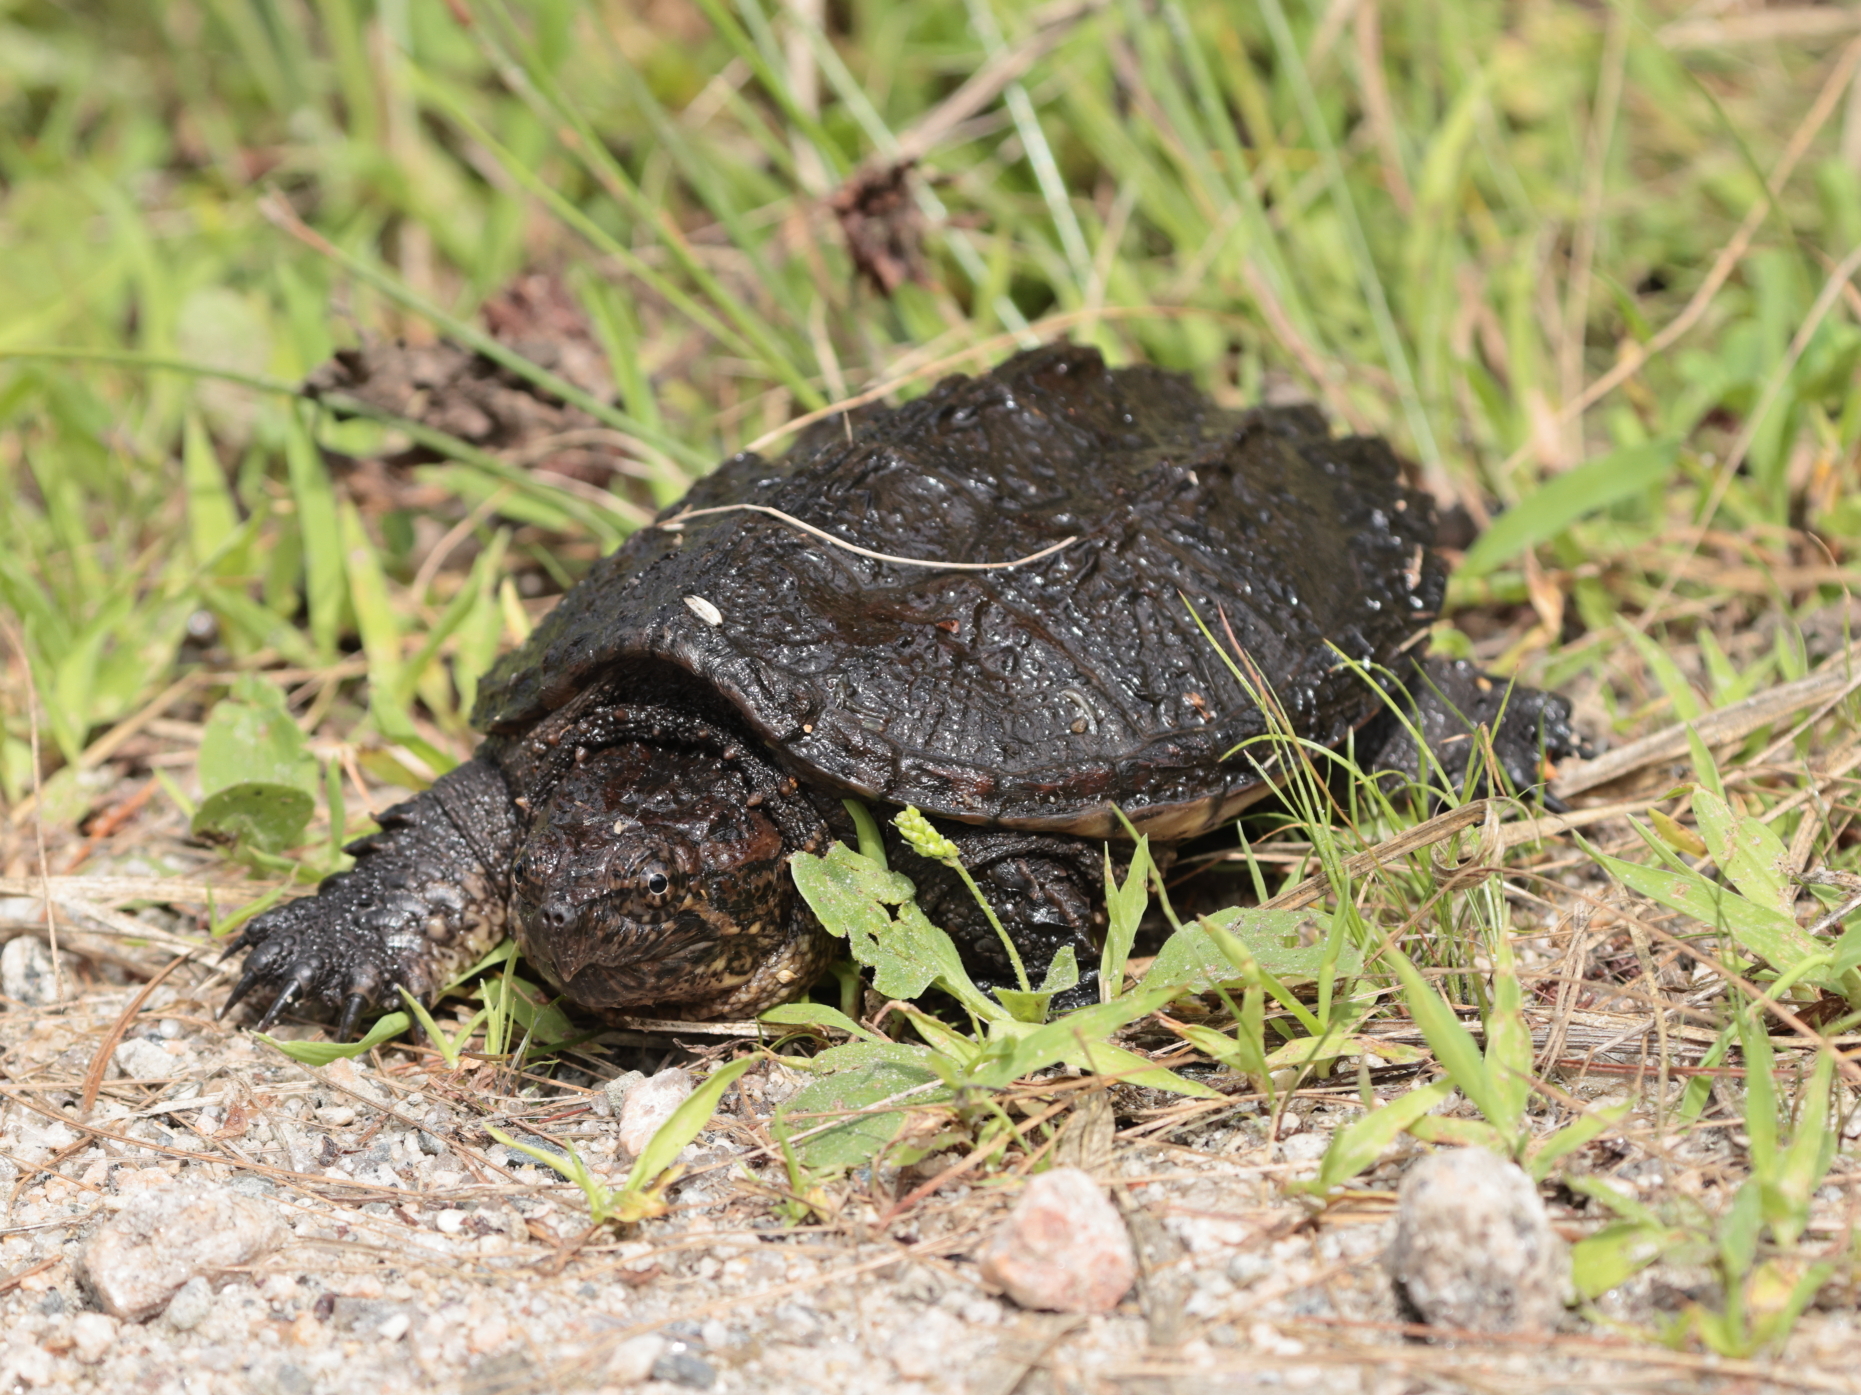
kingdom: Animalia
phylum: Chordata
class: Testudines
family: Chelydridae
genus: Chelydra
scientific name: Chelydra serpentina
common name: Common snapping turtle
